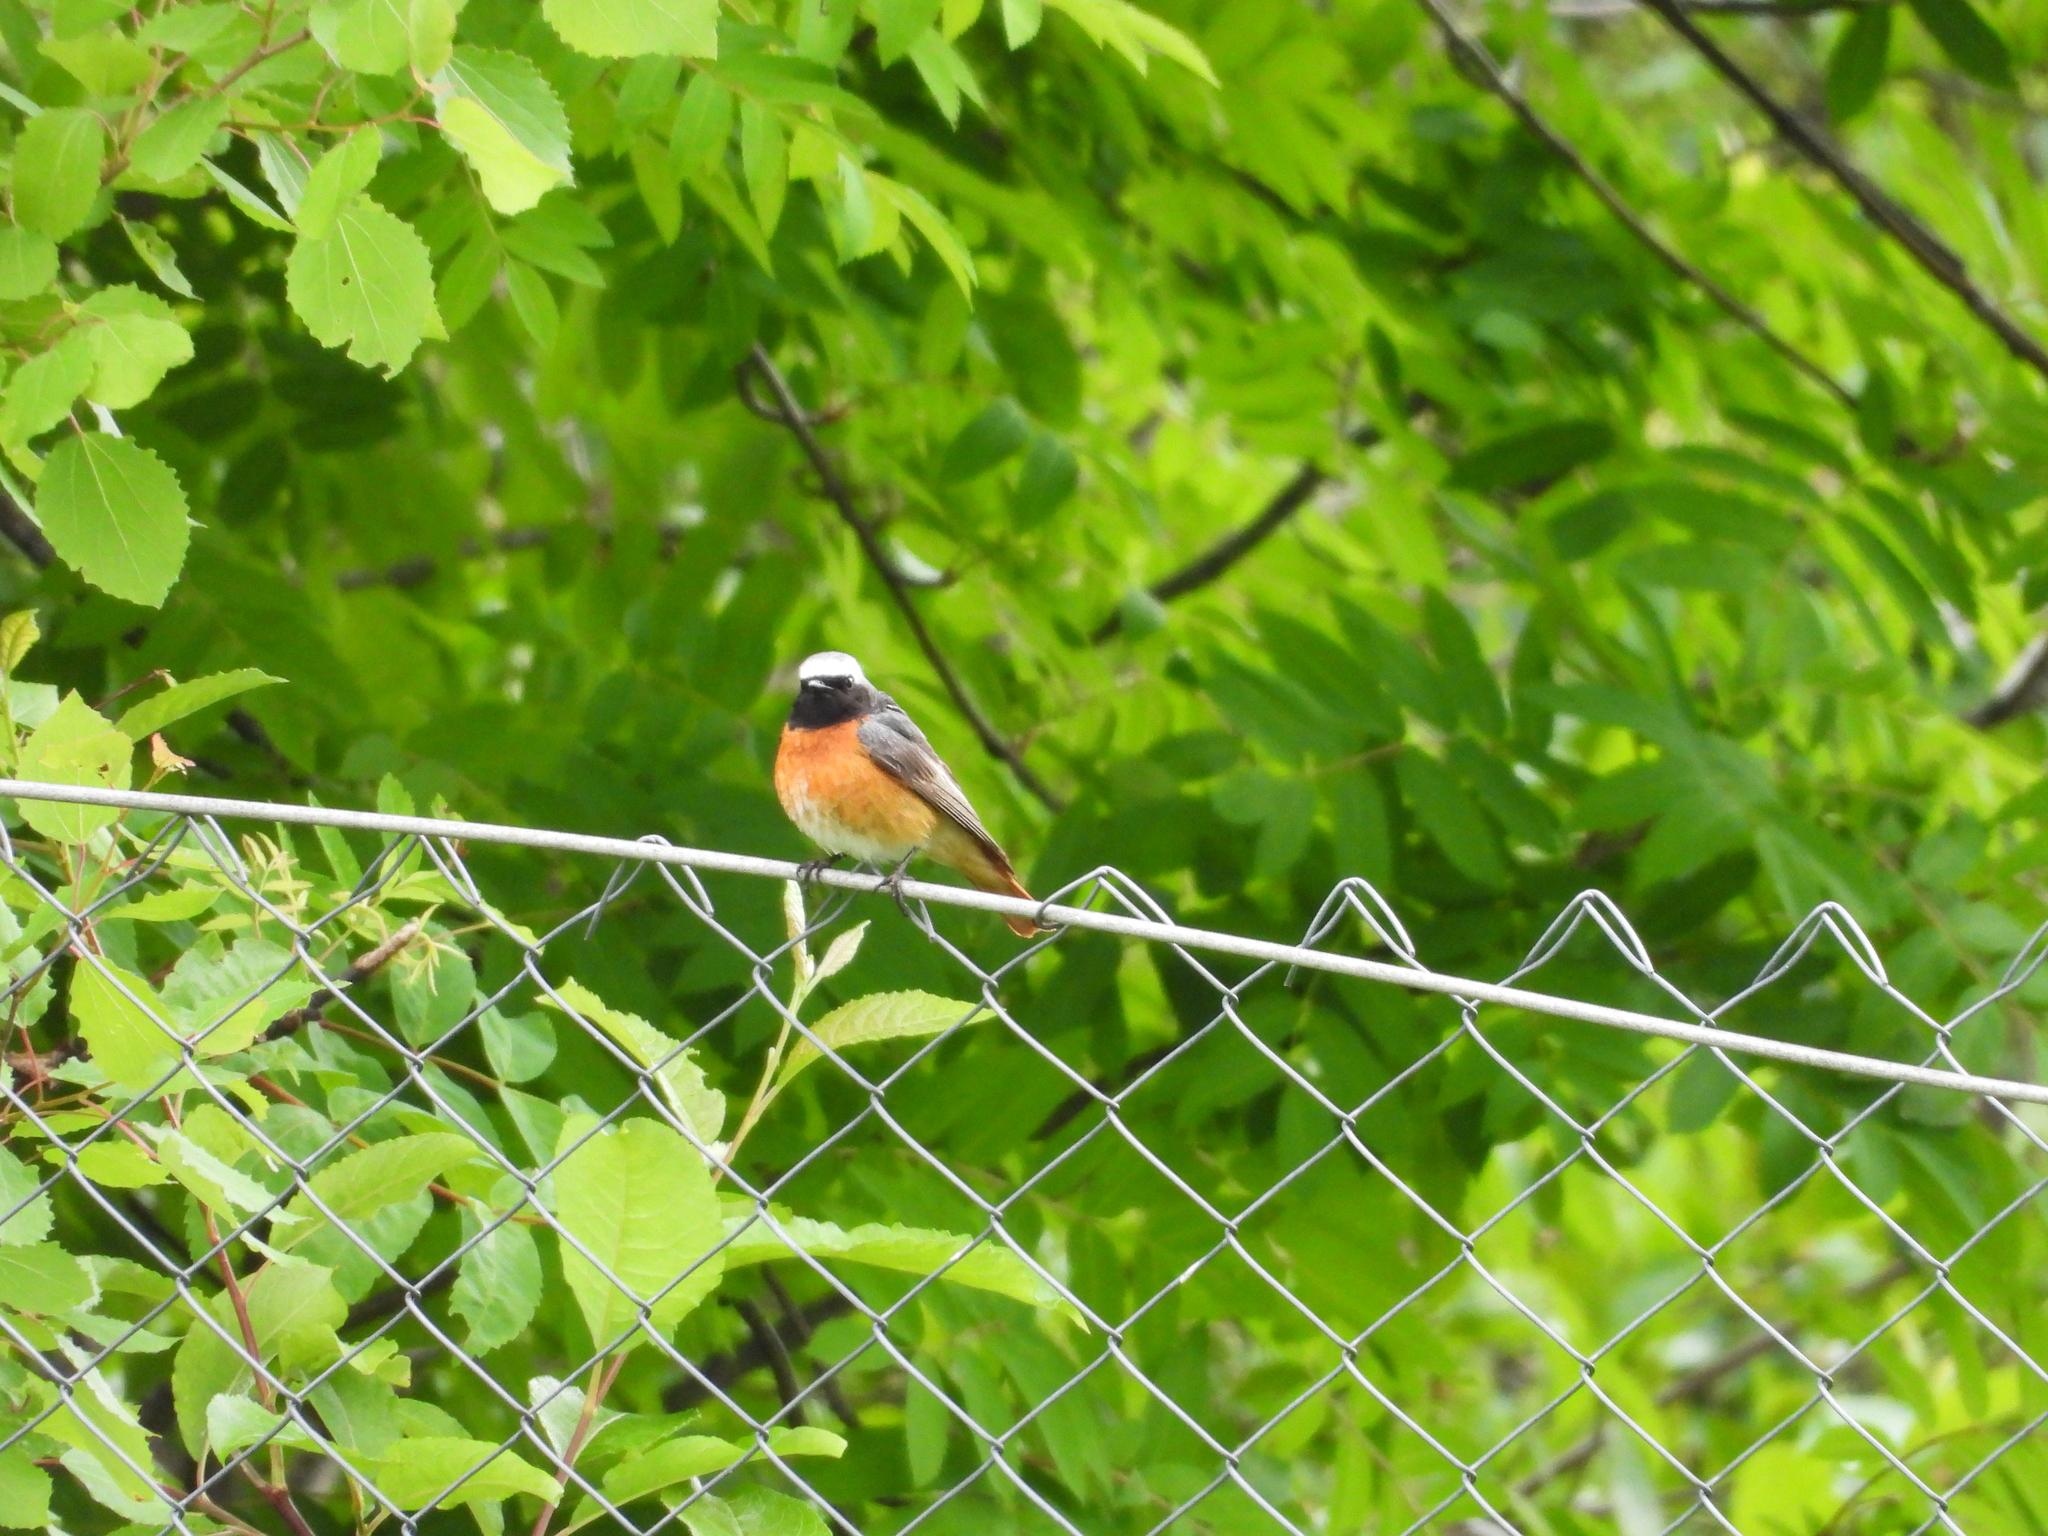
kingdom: Animalia
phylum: Chordata
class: Aves
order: Passeriformes
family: Muscicapidae
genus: Phoenicurus
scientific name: Phoenicurus phoenicurus
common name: Common redstart
